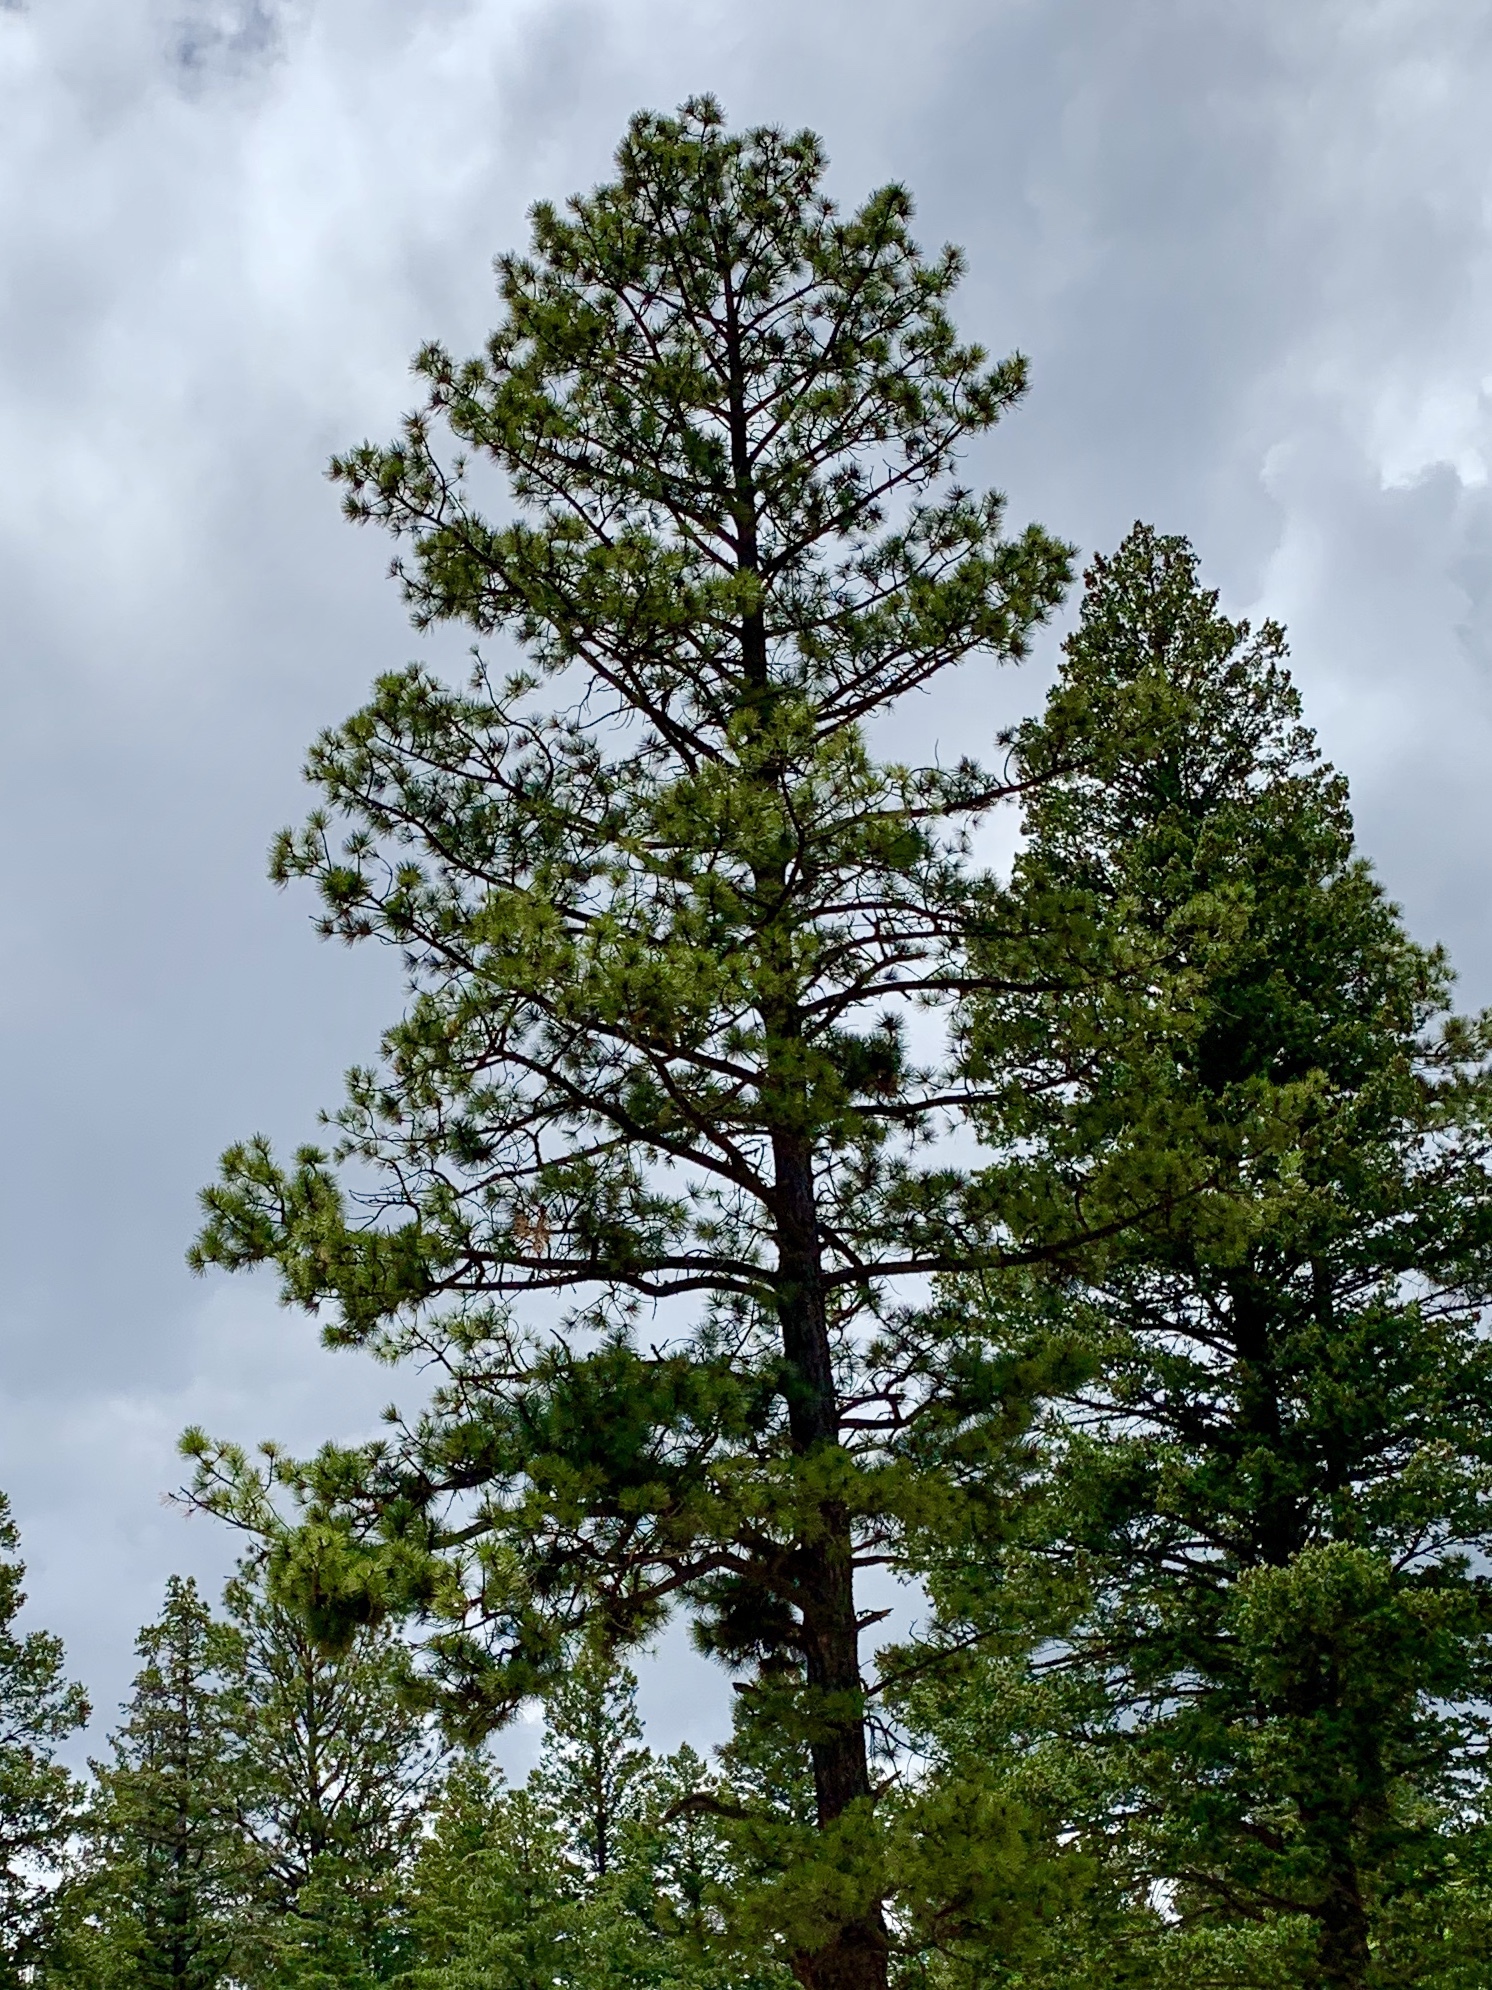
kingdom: Plantae
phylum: Tracheophyta
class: Pinopsida
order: Pinales
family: Pinaceae
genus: Pinus
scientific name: Pinus ponderosa
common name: Western yellow-pine
